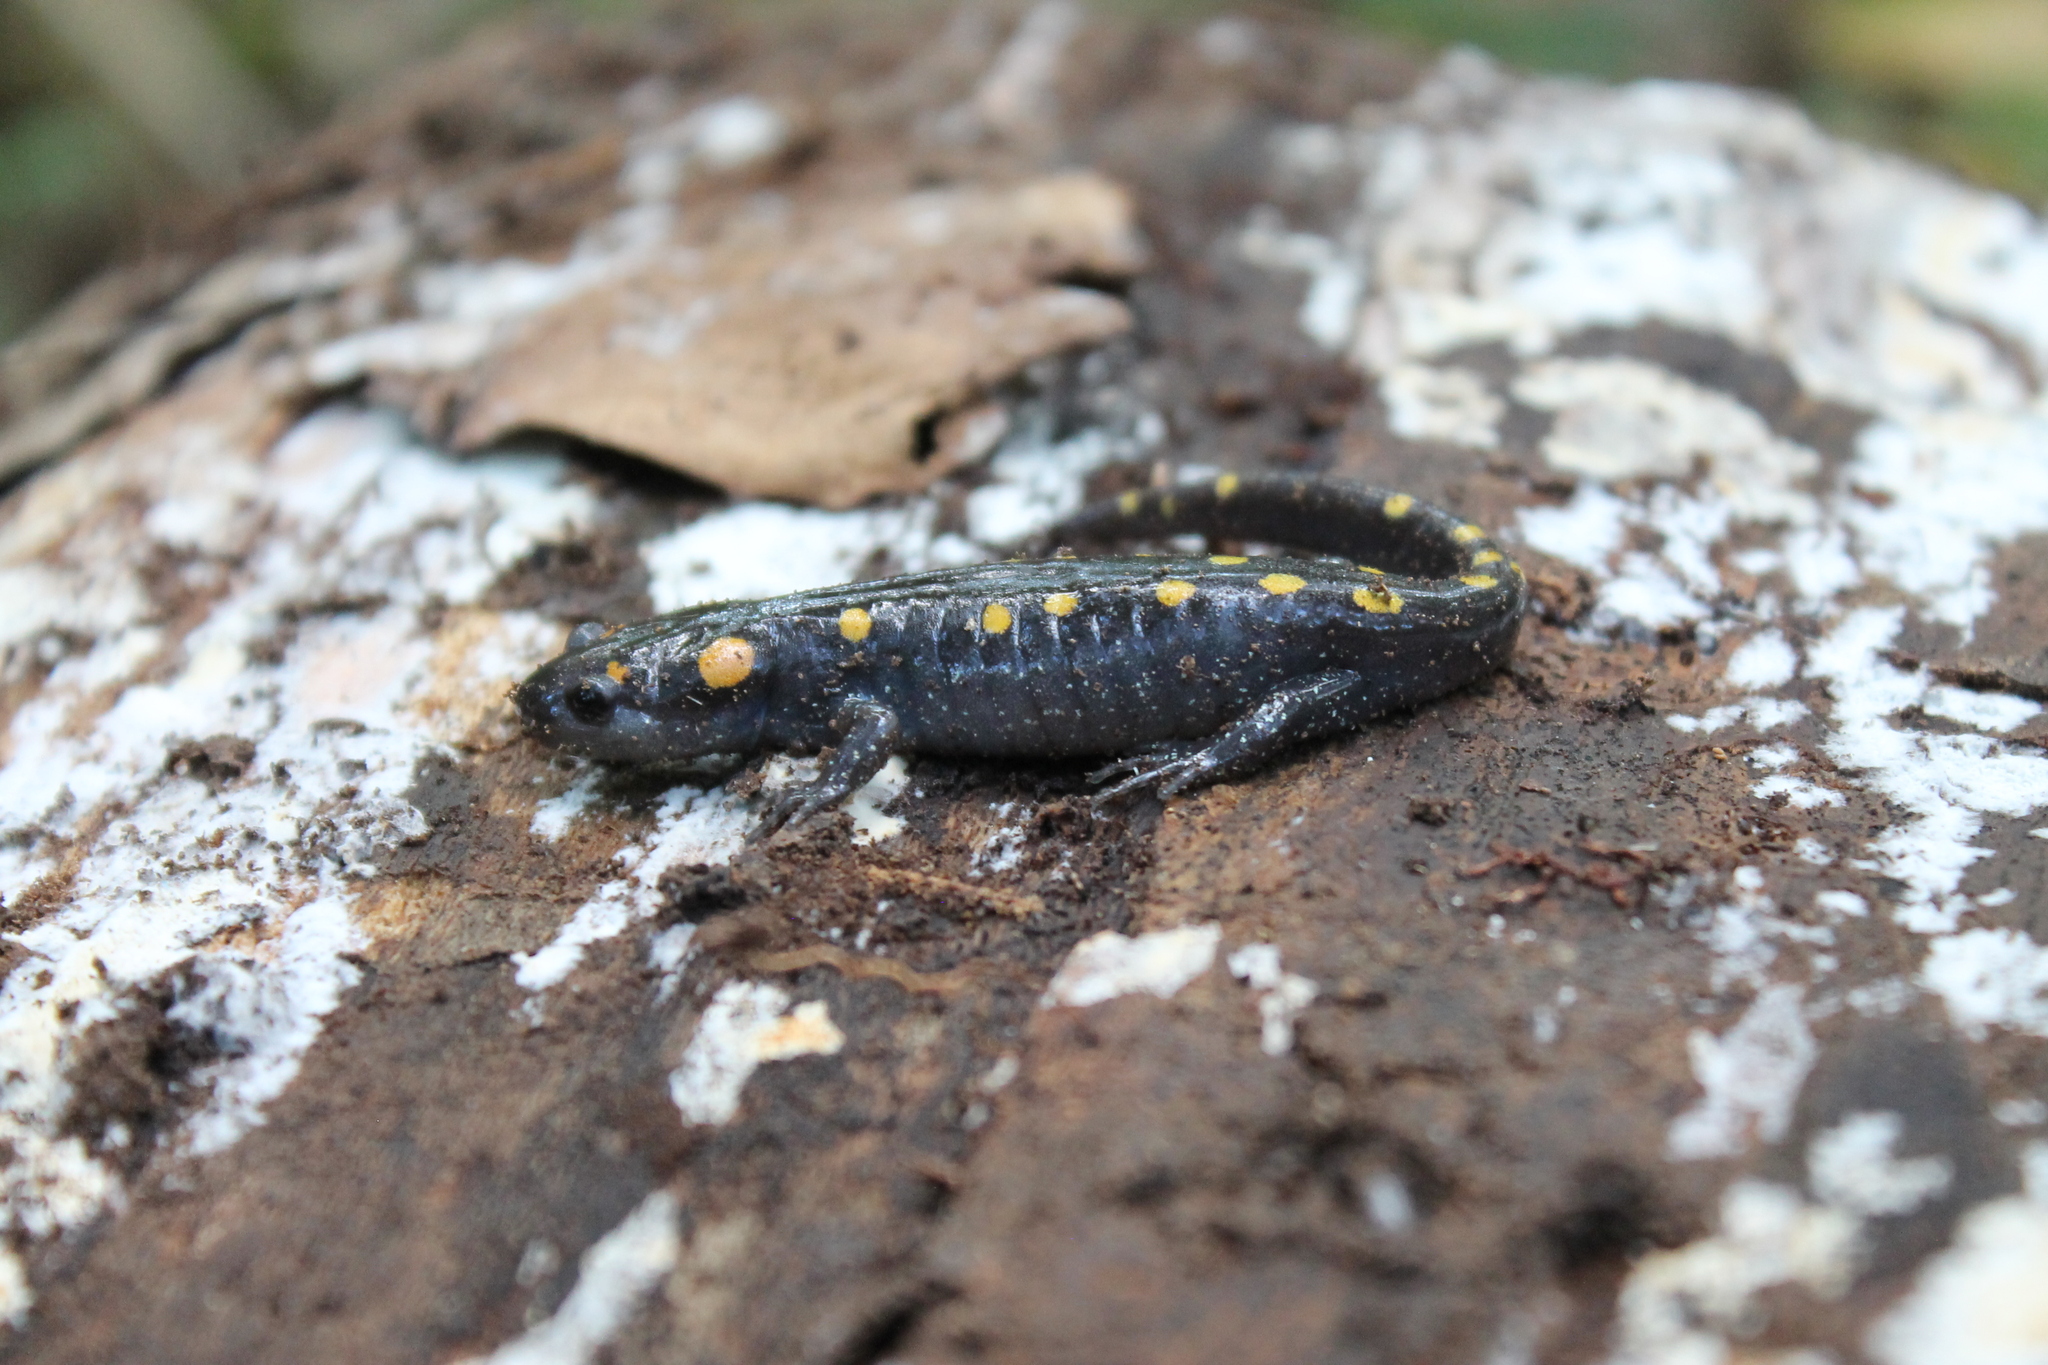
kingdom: Animalia
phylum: Chordata
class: Amphibia
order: Caudata
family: Ambystomatidae
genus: Ambystoma
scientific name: Ambystoma maculatum
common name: Spotted salamander
